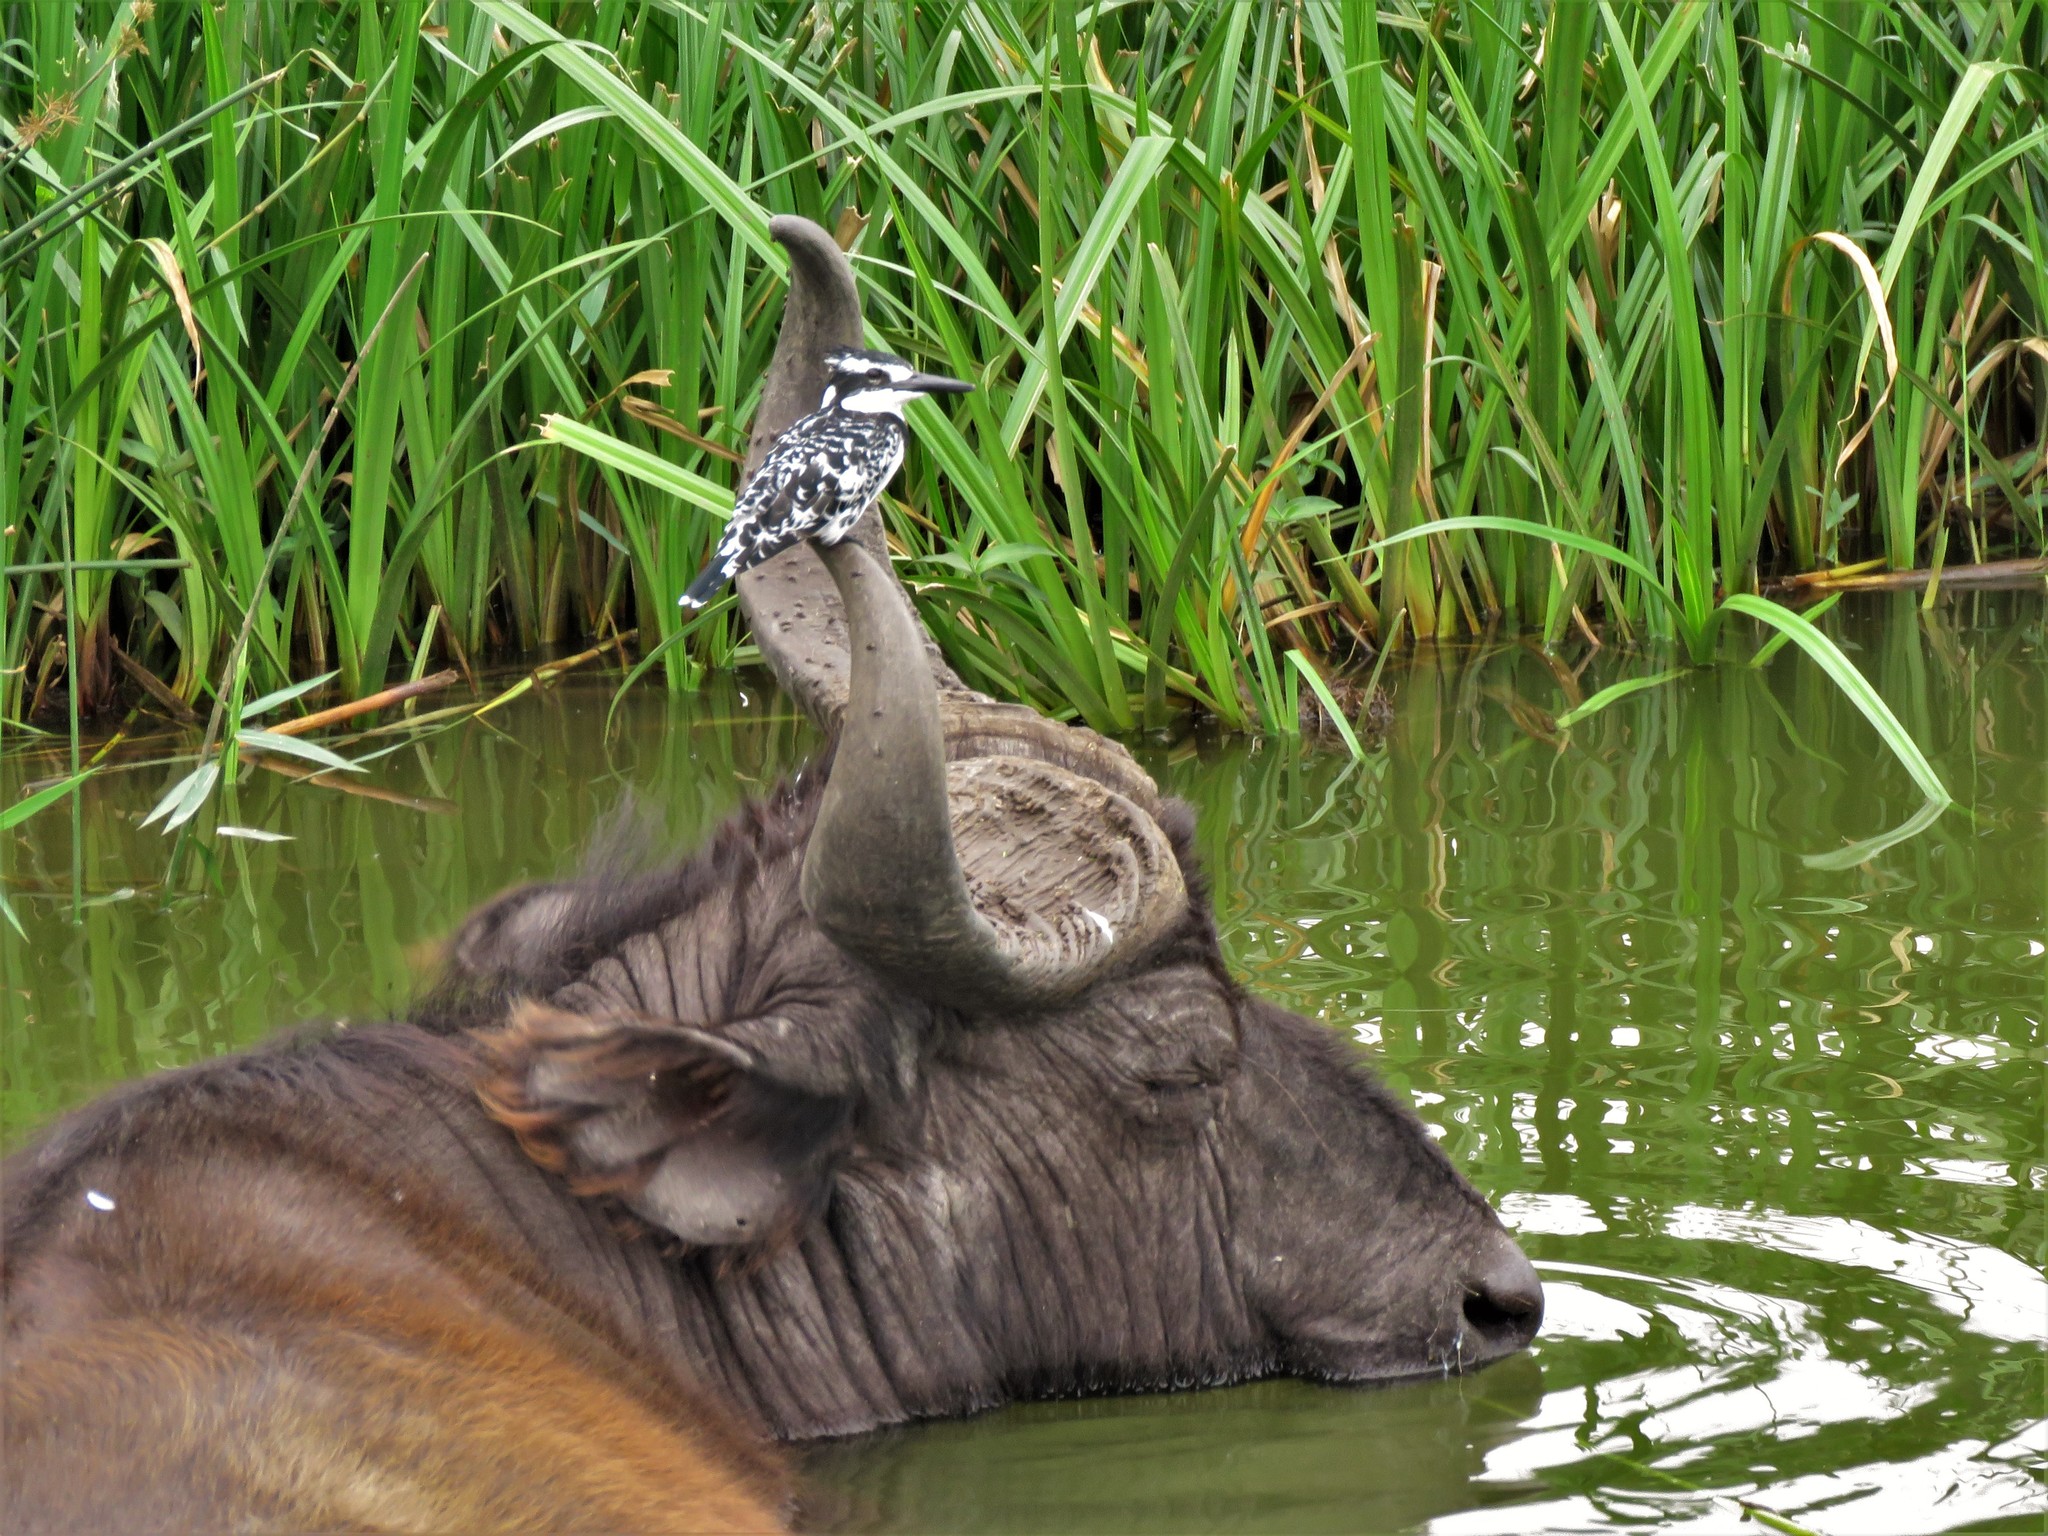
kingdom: Animalia
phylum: Chordata
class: Aves
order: Coraciiformes
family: Alcedinidae
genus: Ceryle
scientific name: Ceryle rudis
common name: Pied kingfisher
